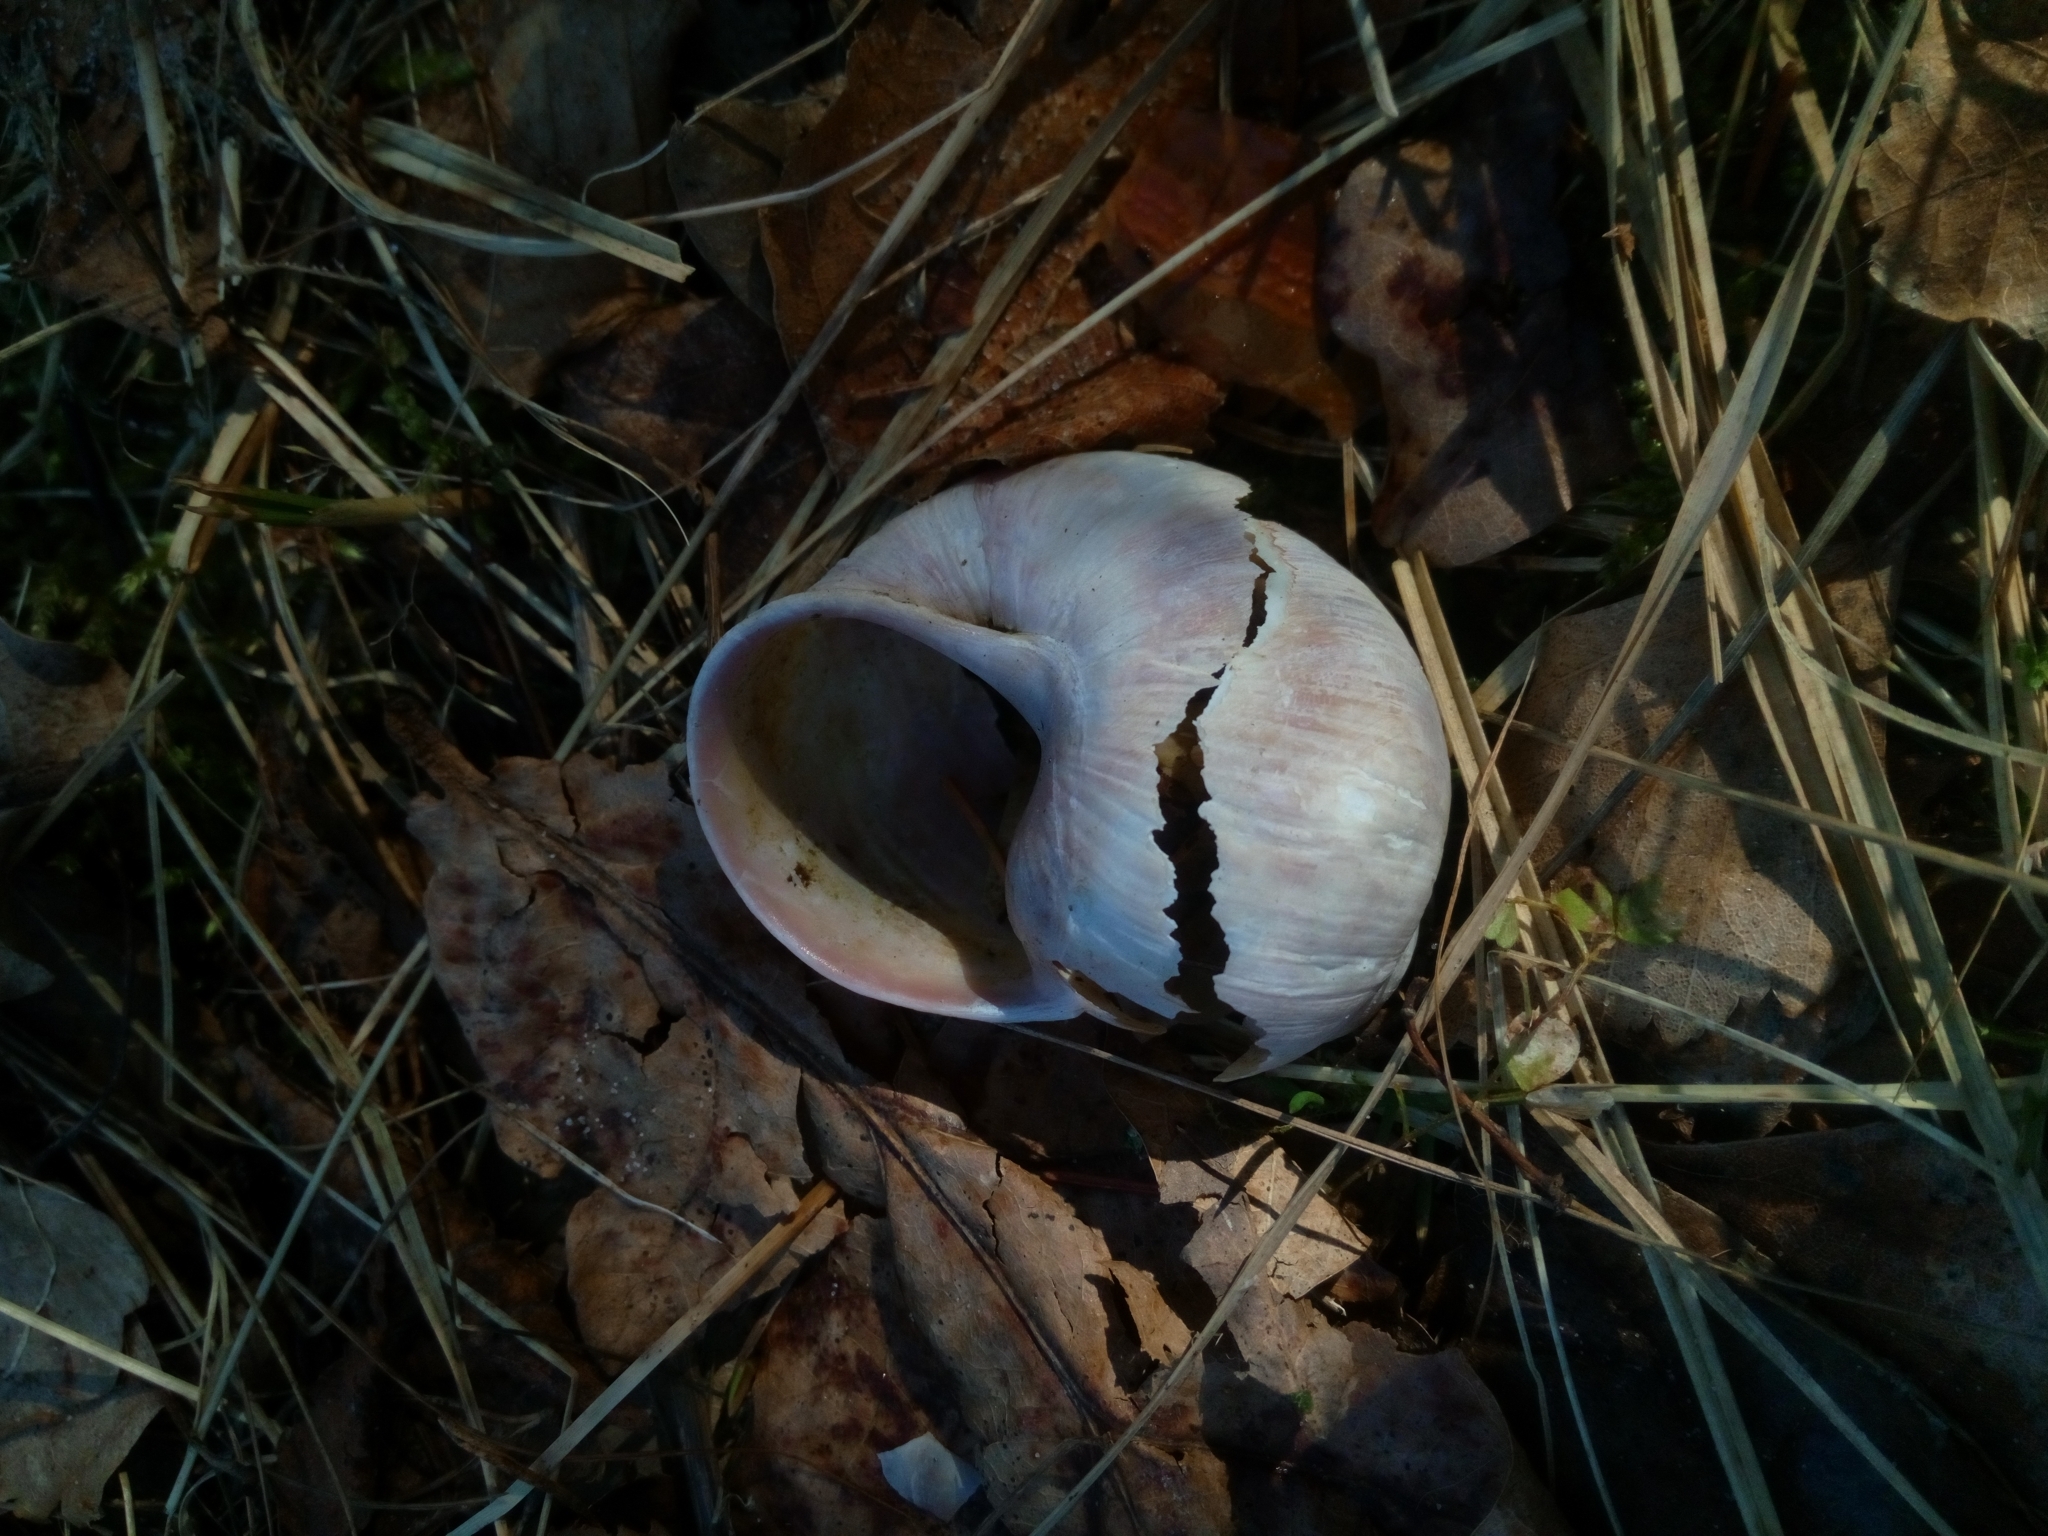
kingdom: Animalia
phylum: Mollusca
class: Gastropoda
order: Stylommatophora
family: Helicidae
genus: Helix
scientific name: Helix pomatia
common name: Roman snail
